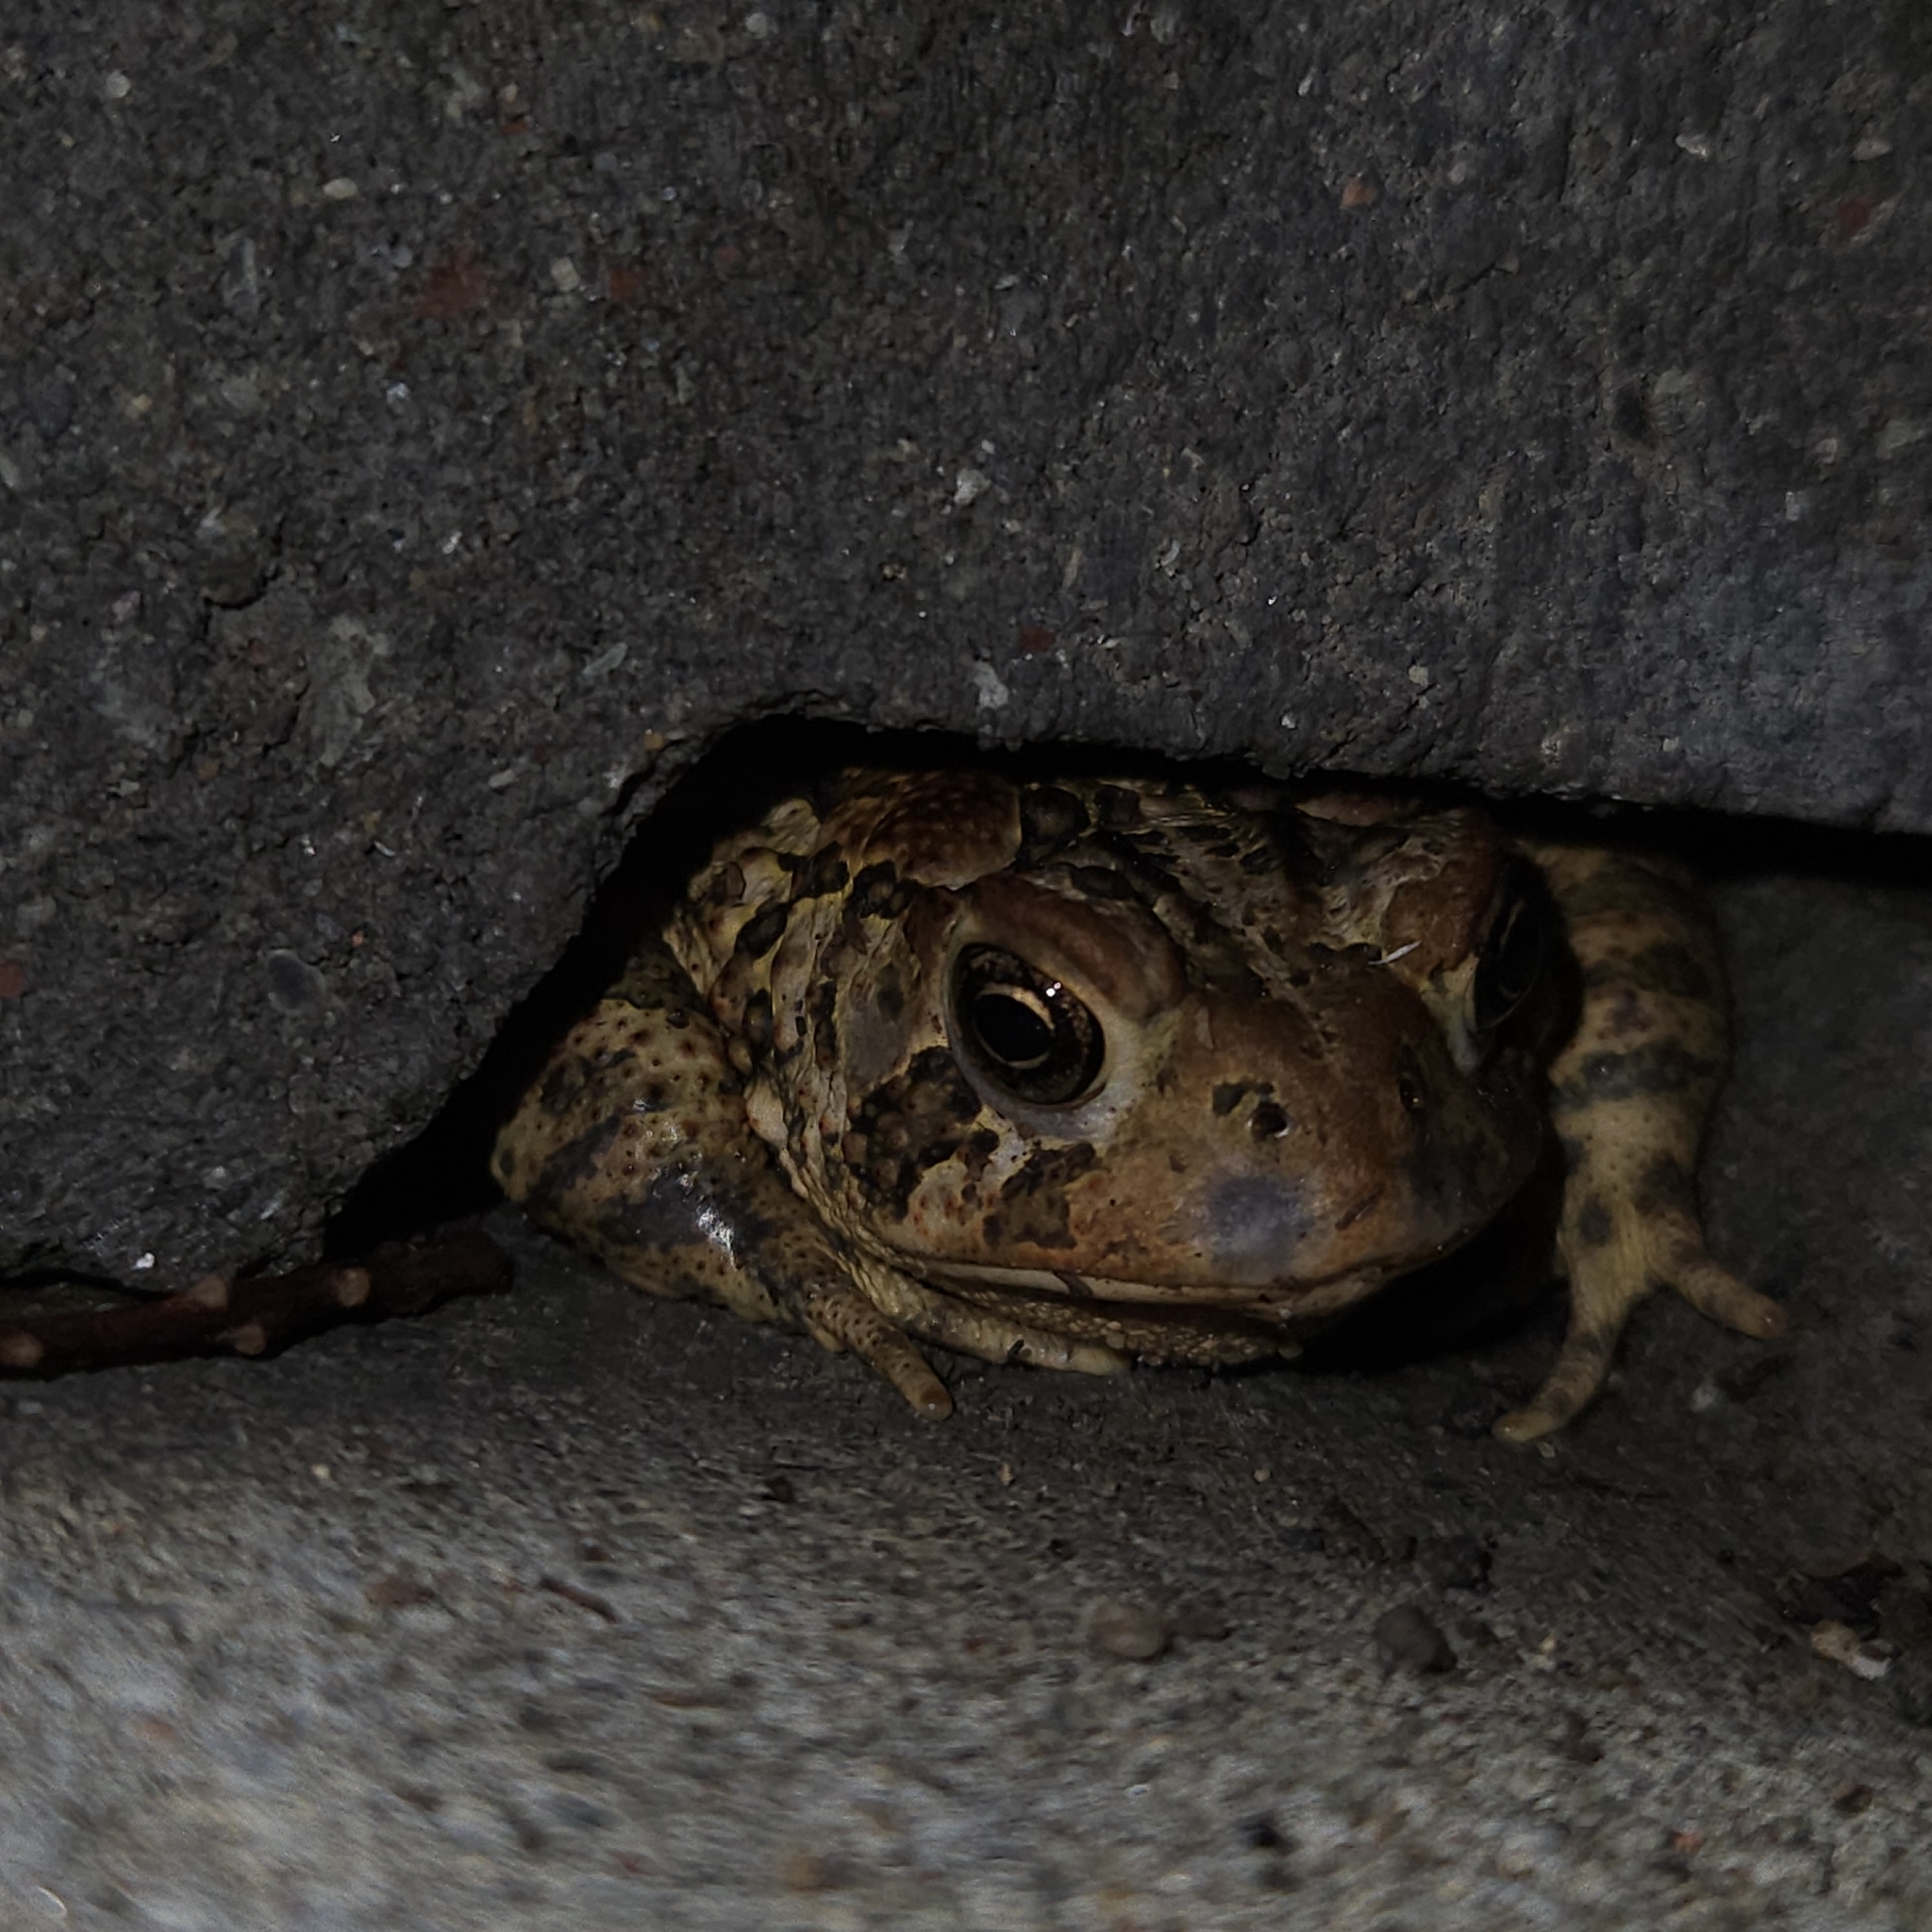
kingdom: Animalia
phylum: Chordata
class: Amphibia
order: Anura
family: Bufonidae
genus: Anaxyrus
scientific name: Anaxyrus americanus
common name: American toad
